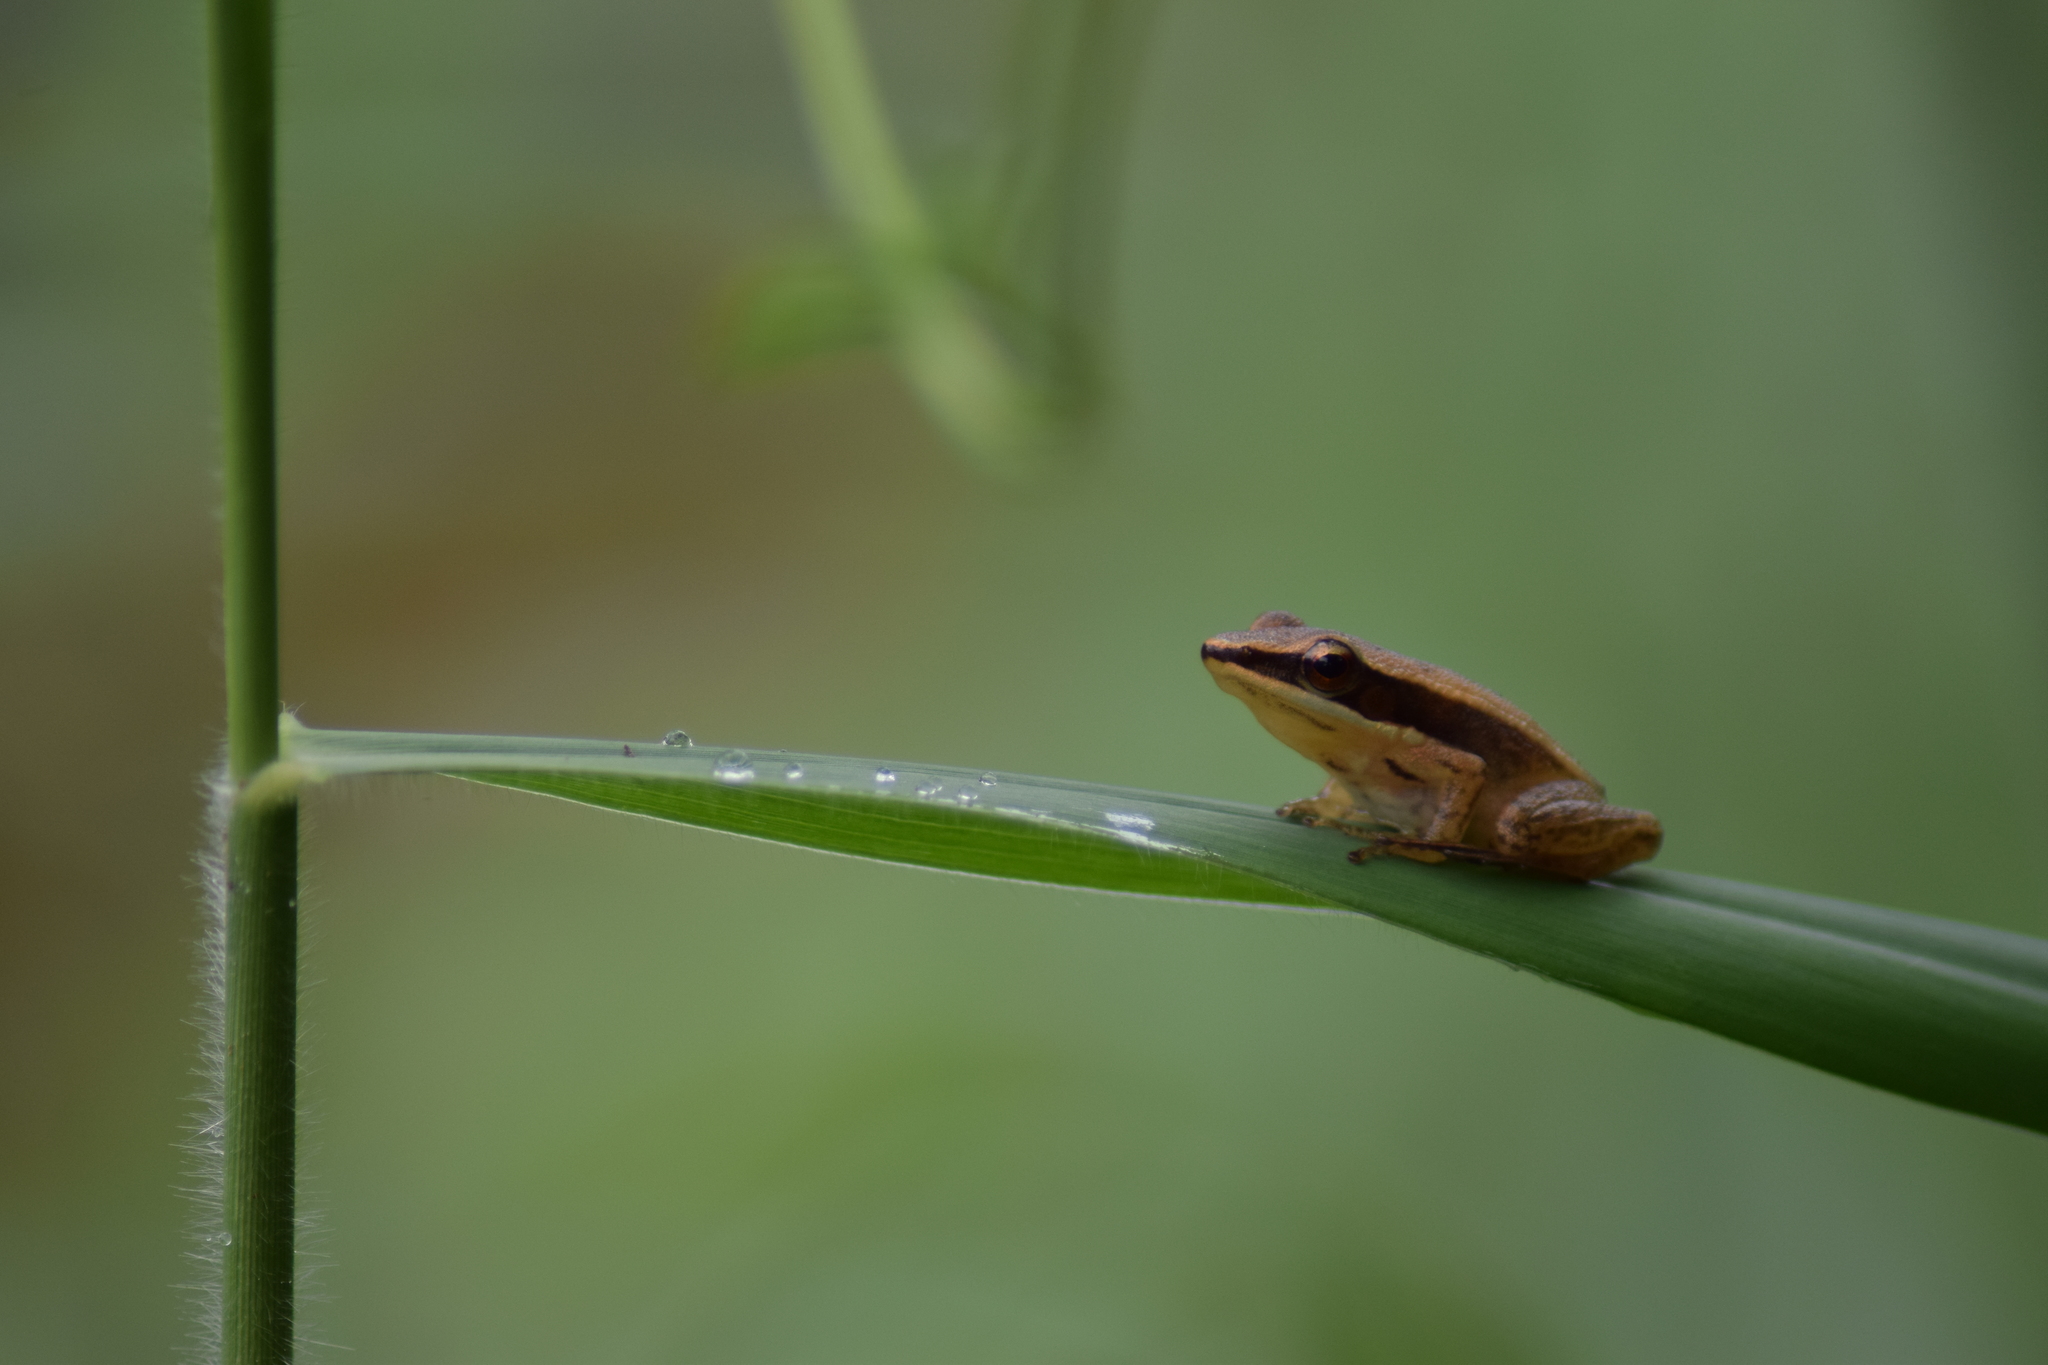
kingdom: Animalia
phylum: Chordata
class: Amphibia
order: Anura
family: Ranidae
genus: Indosylvirana
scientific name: Indosylvirana urbis
